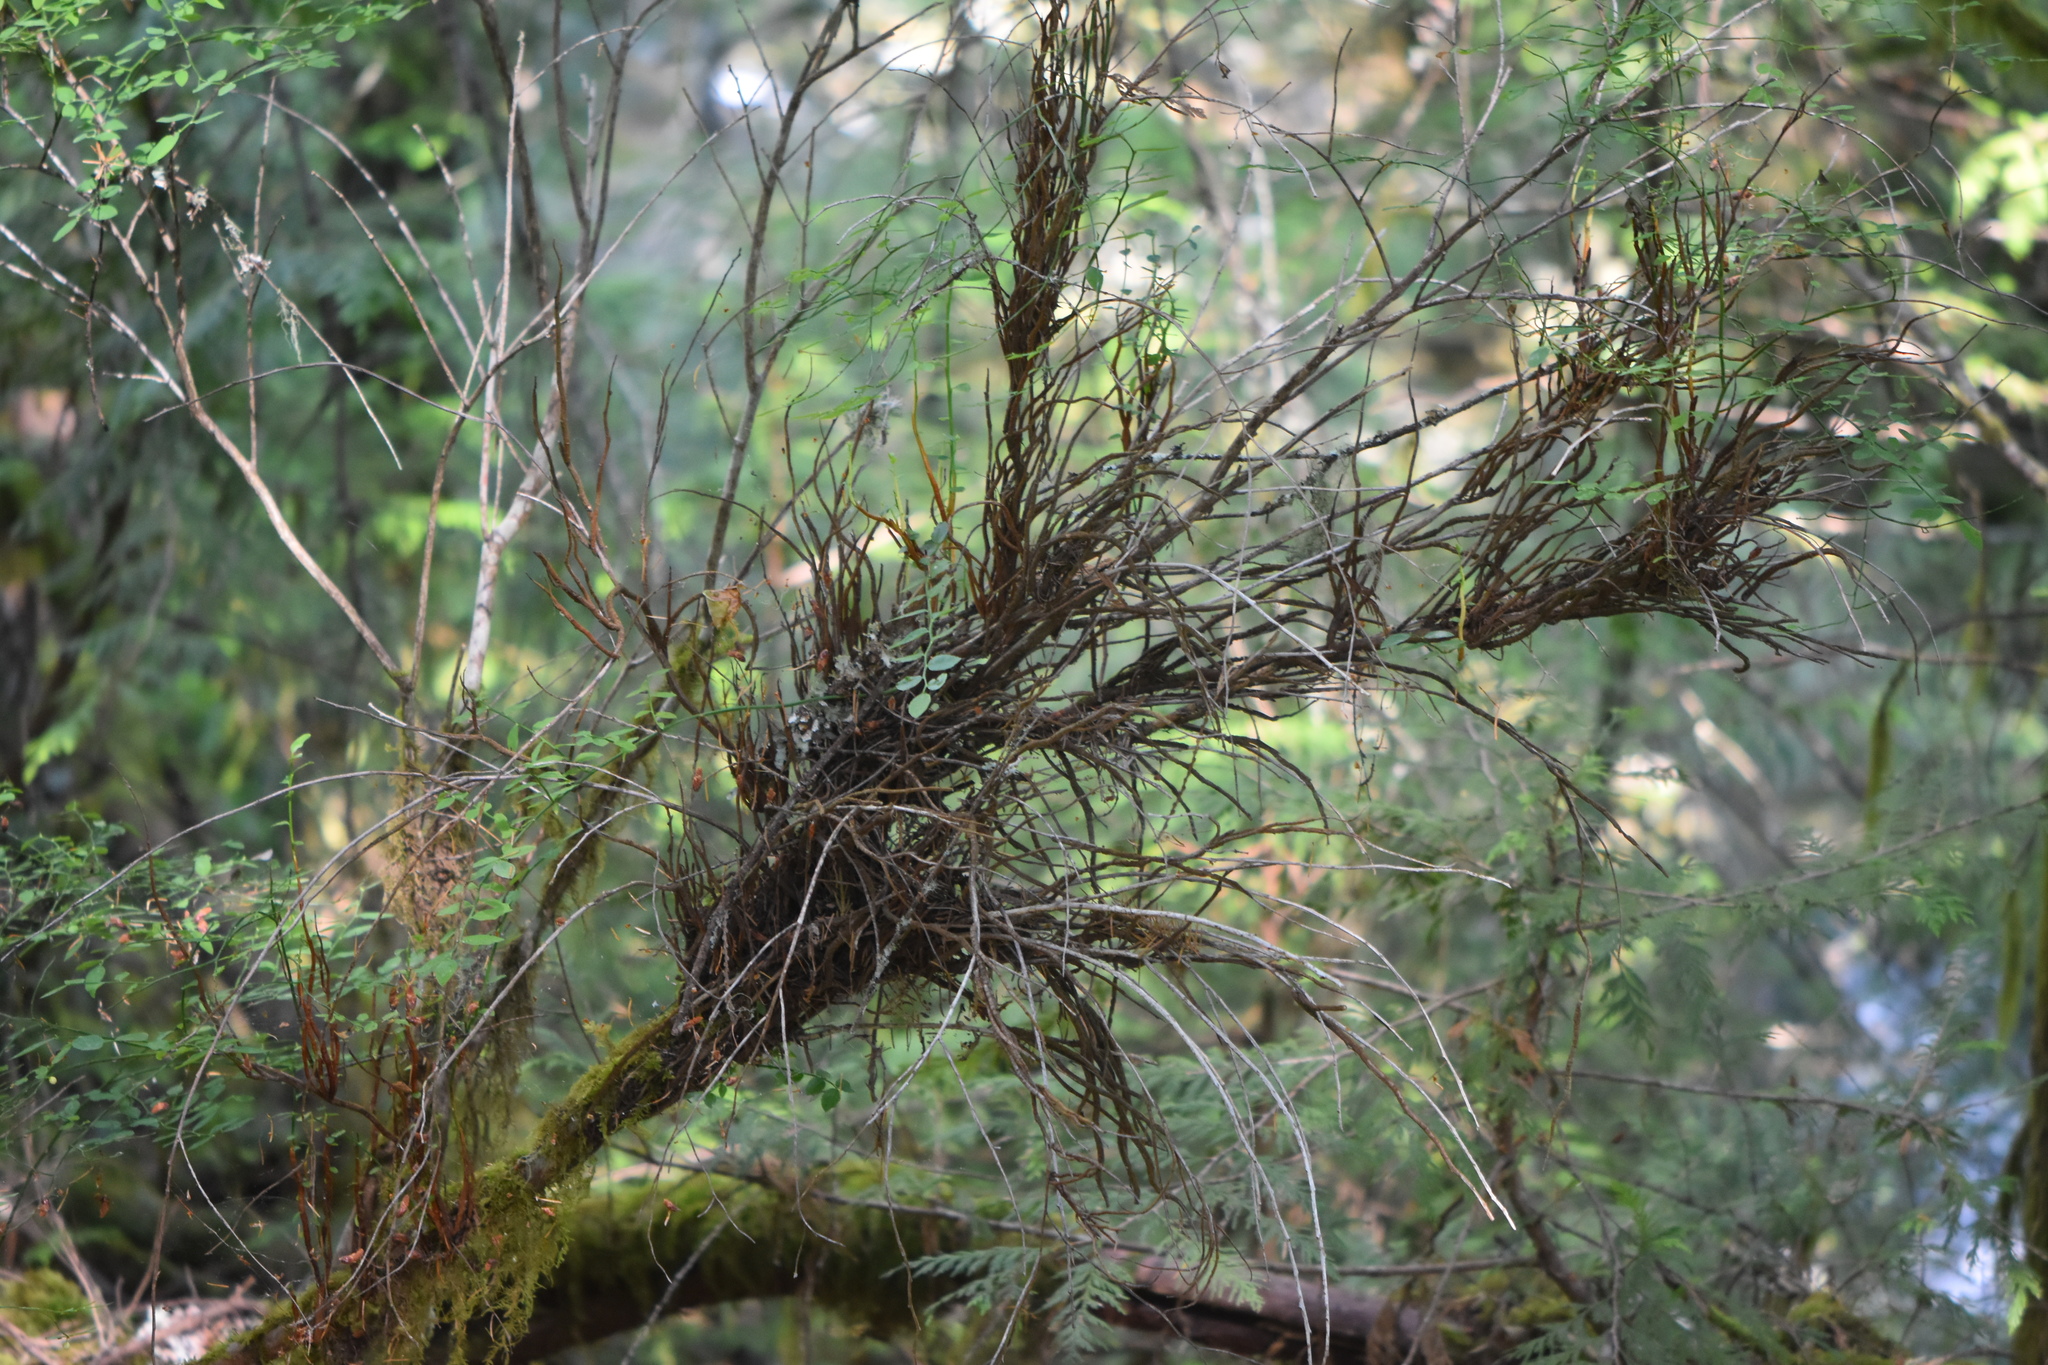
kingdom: Fungi
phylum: Basidiomycota
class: Pucciniomycetes
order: Pucciniales
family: Pucciniastraceae
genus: Calyptospora
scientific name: Calyptospora
